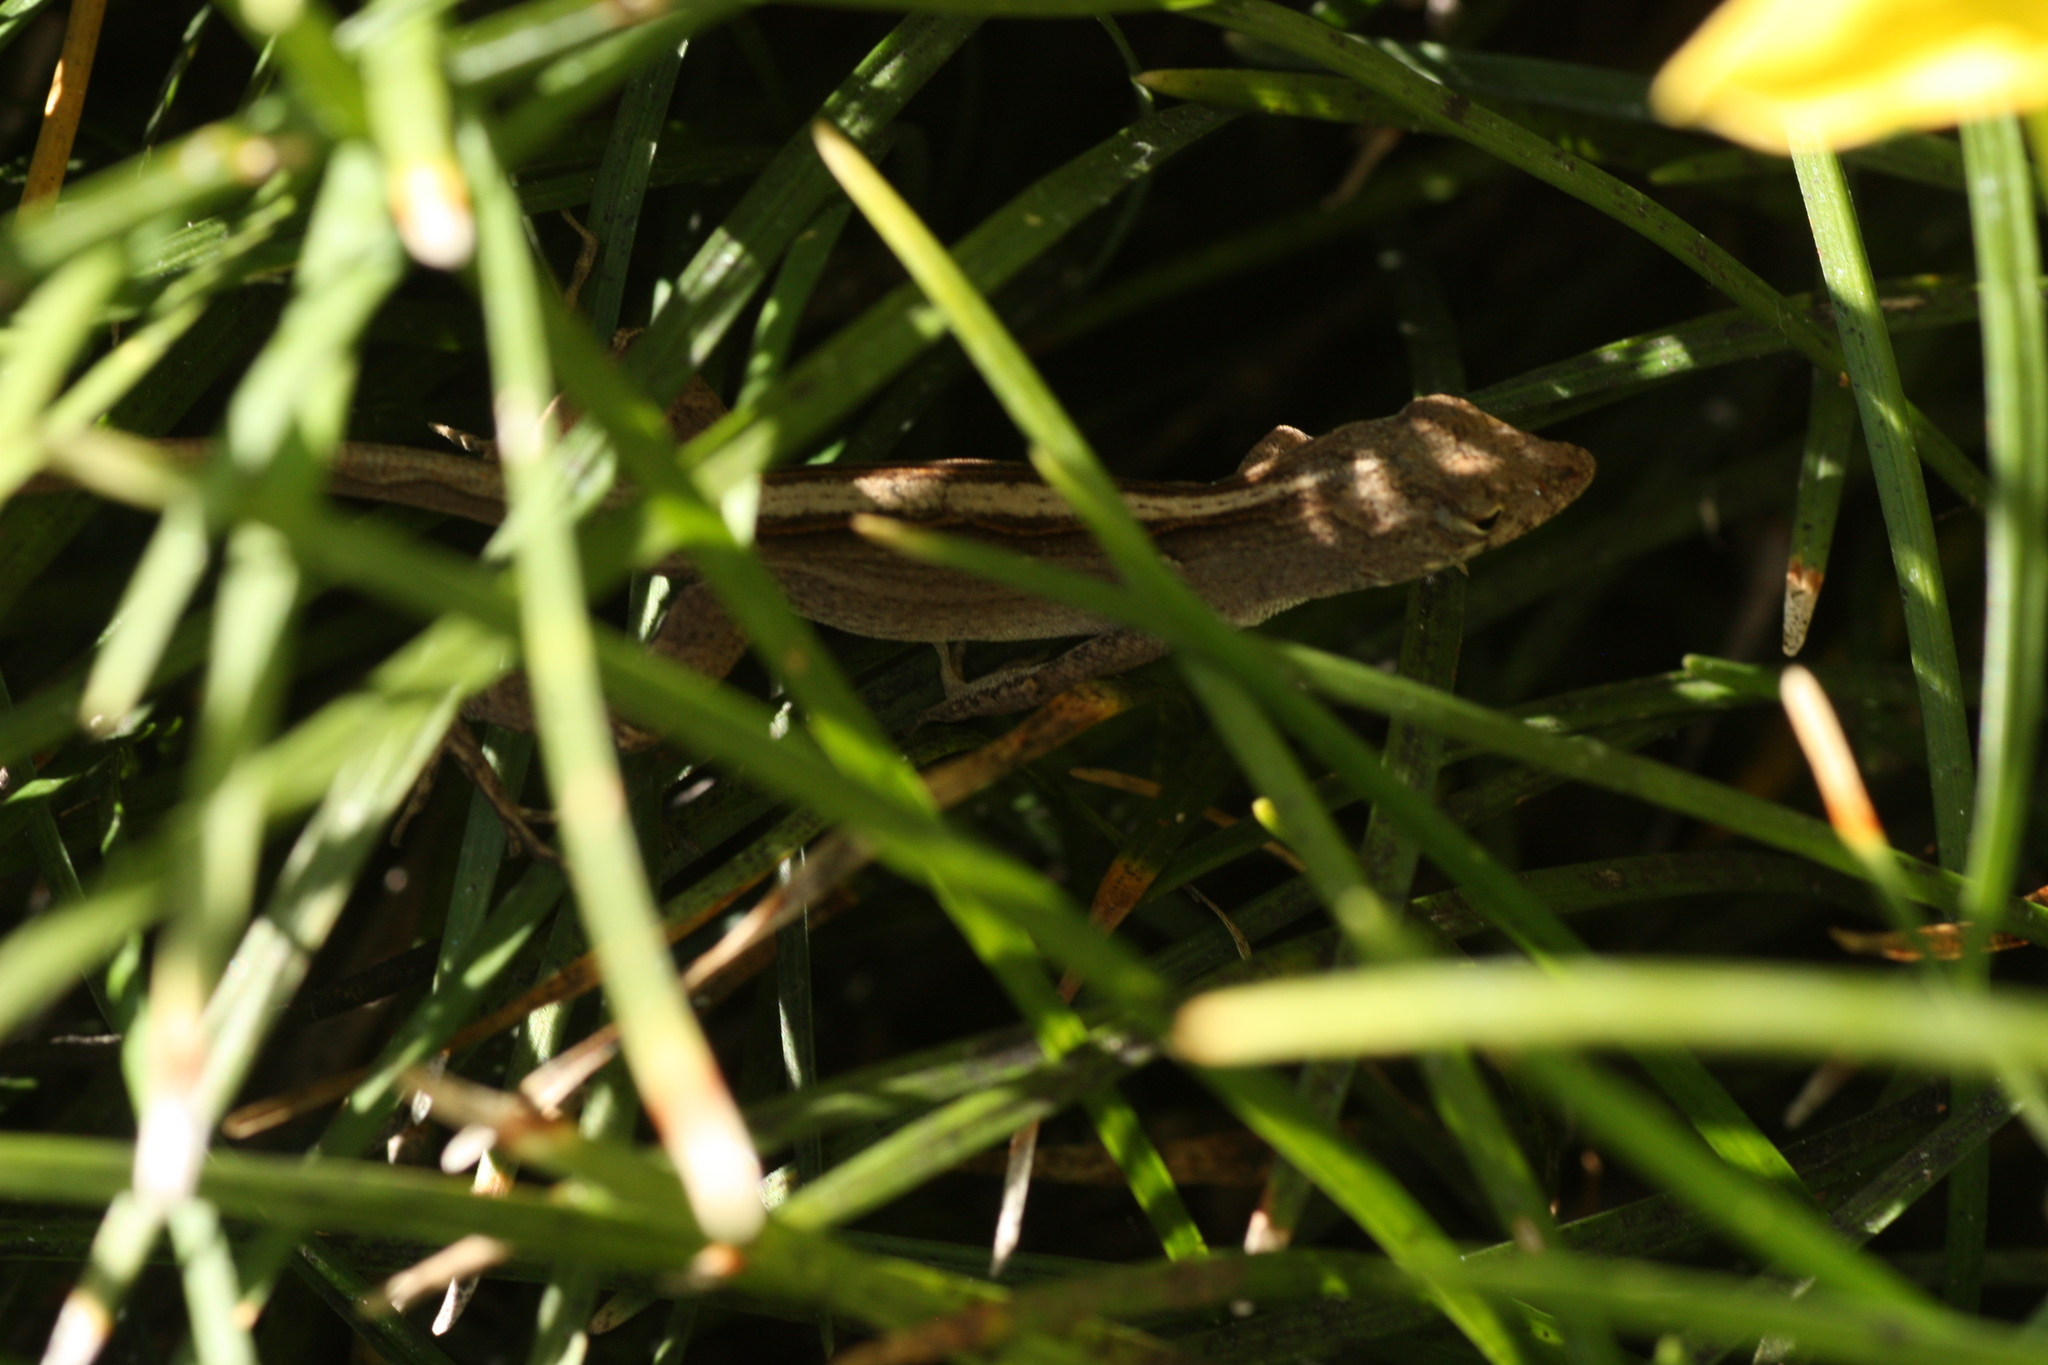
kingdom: Animalia
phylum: Chordata
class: Squamata
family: Dactyloidae
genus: Anolis
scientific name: Anolis sagrei
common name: Brown anole
